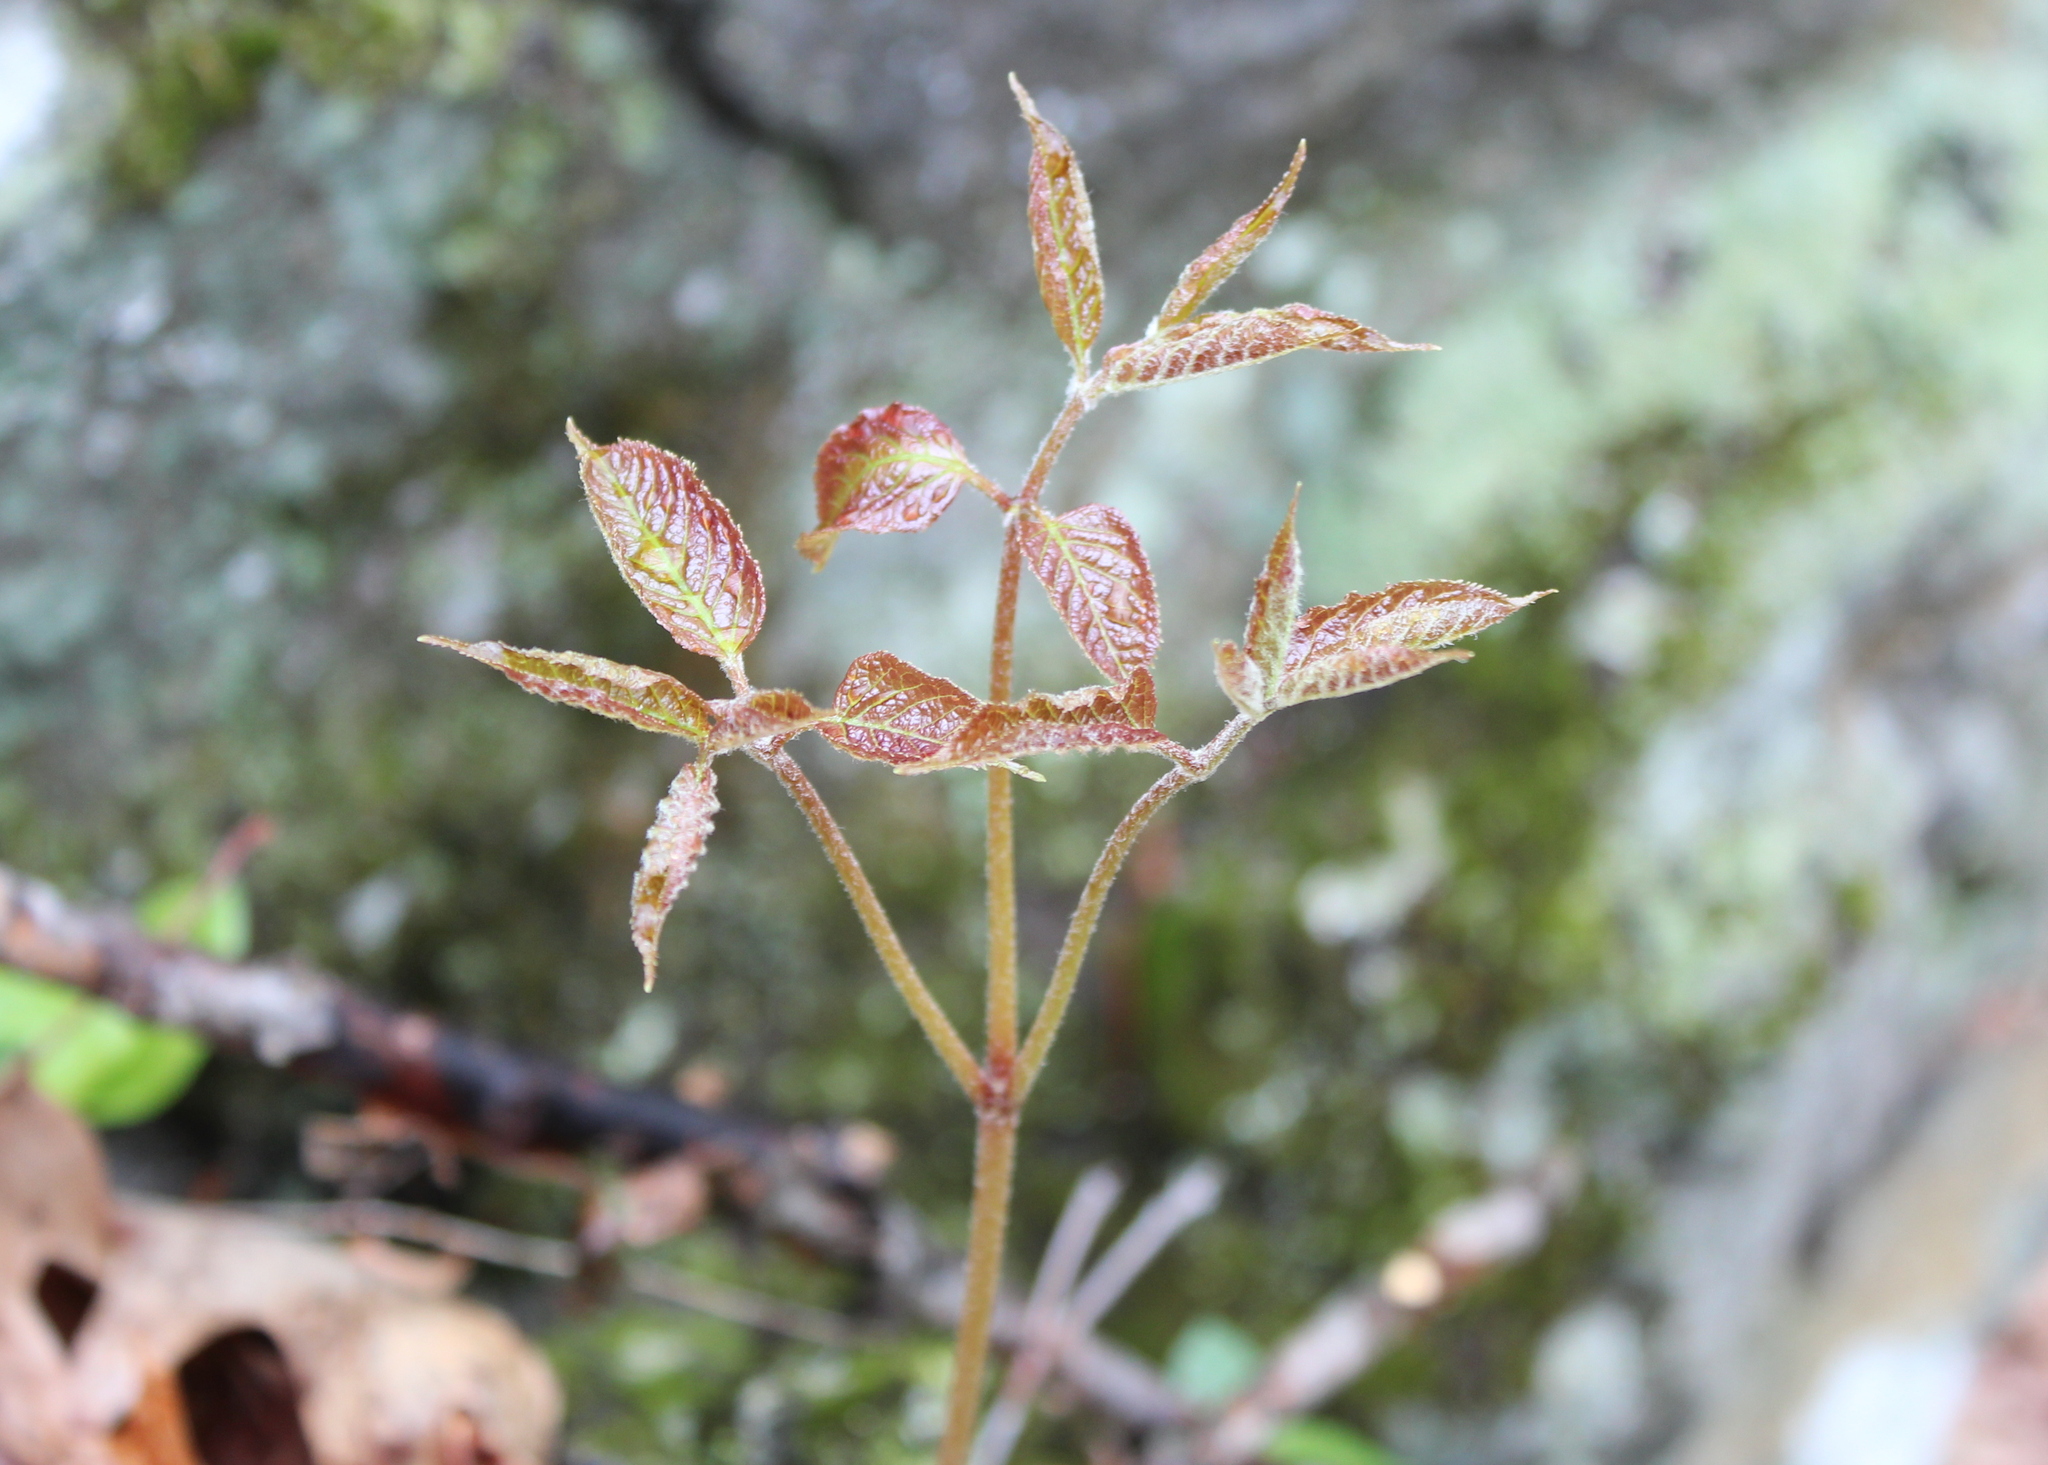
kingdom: Plantae
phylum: Tracheophyta
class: Magnoliopsida
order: Apiales
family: Araliaceae
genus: Aralia
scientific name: Aralia nudicaulis
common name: Wild sarsaparilla
